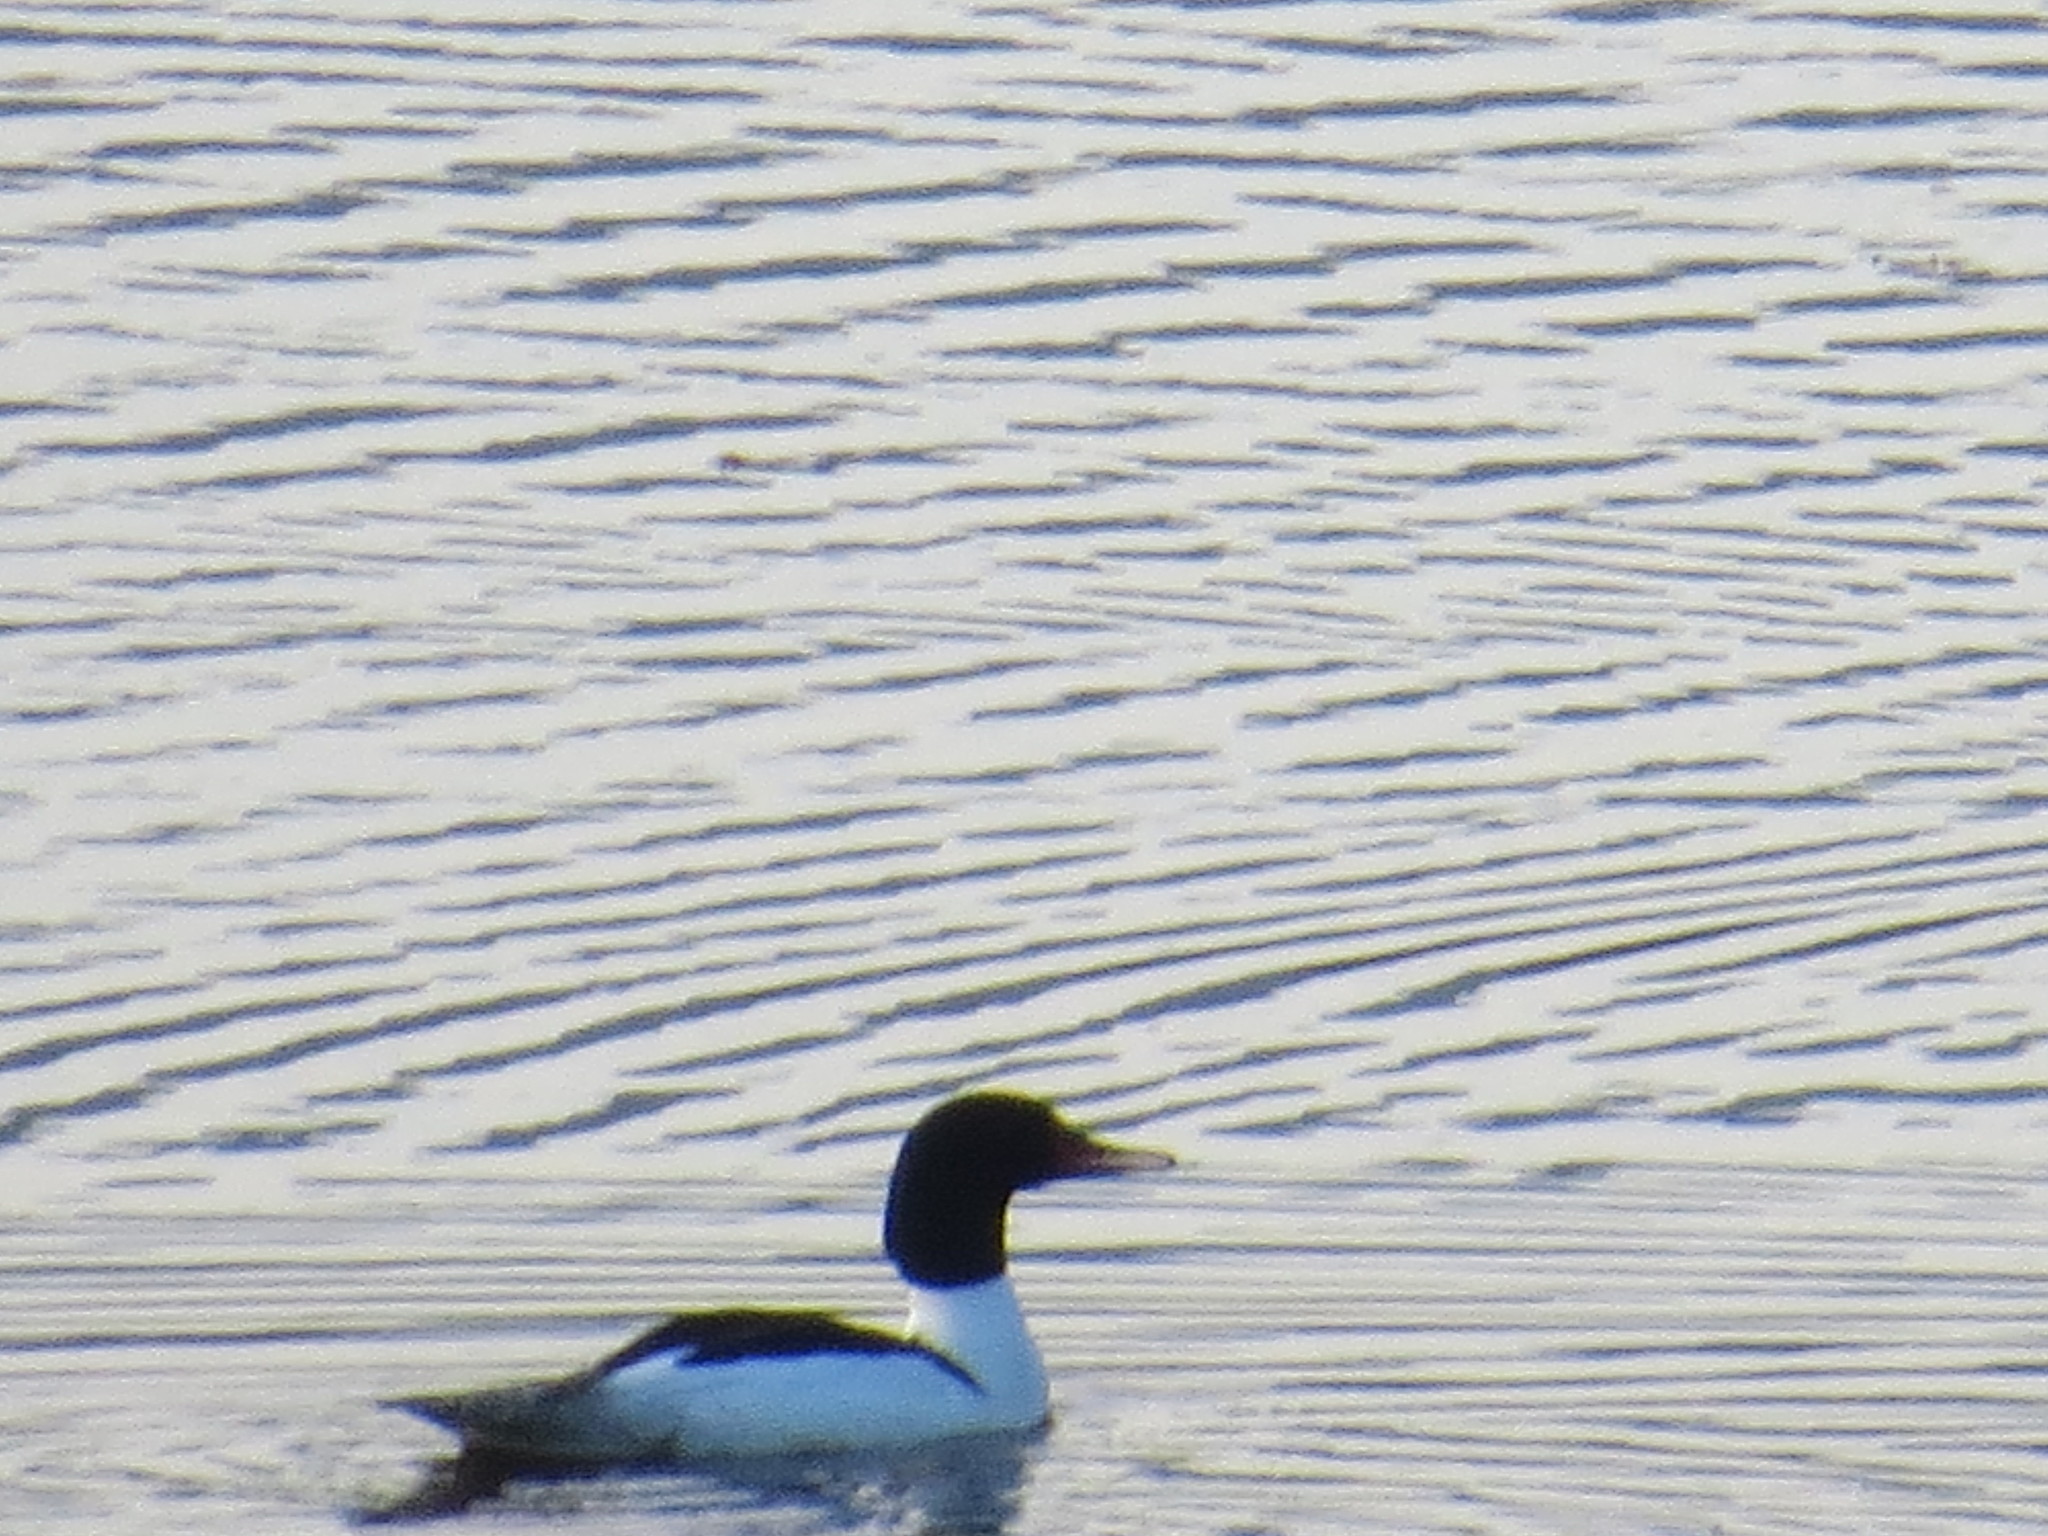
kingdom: Animalia
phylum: Chordata
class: Aves
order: Anseriformes
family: Anatidae
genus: Mergus
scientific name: Mergus merganser
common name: Common merganser
